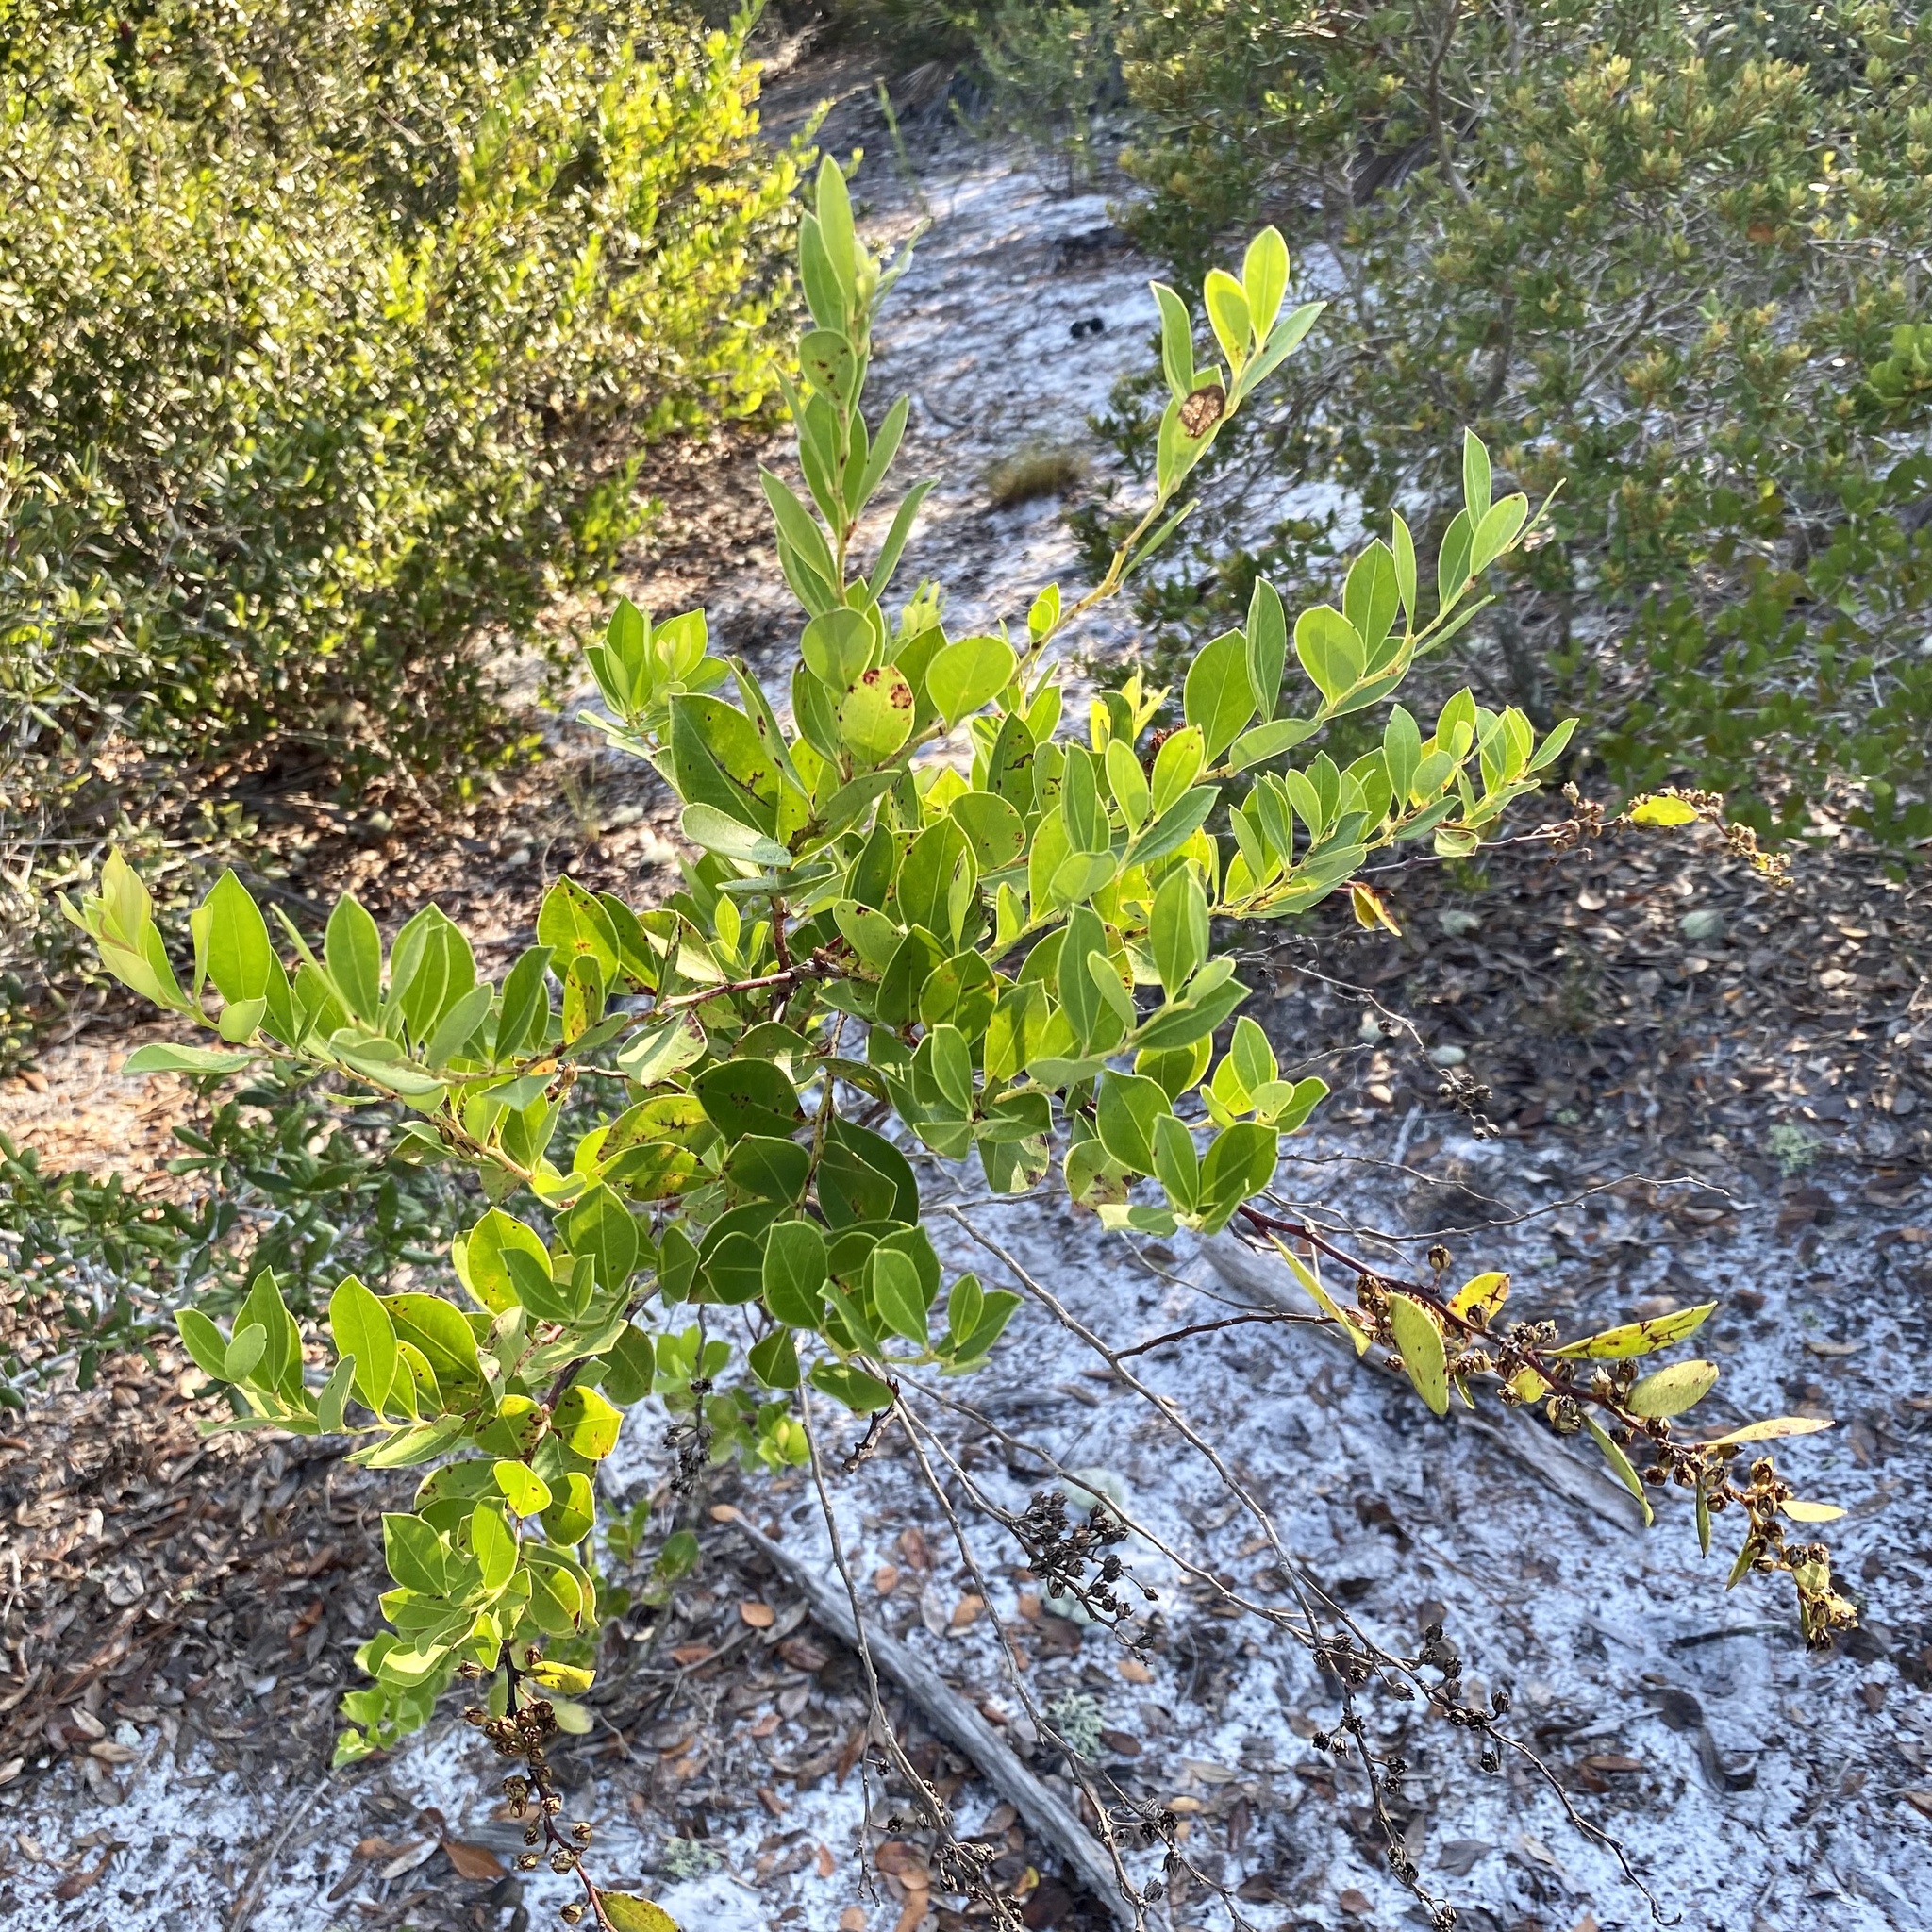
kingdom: Plantae
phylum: Tracheophyta
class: Magnoliopsida
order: Ericales
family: Ericaceae
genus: Lyonia
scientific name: Lyonia lucida
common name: Fetterbush
